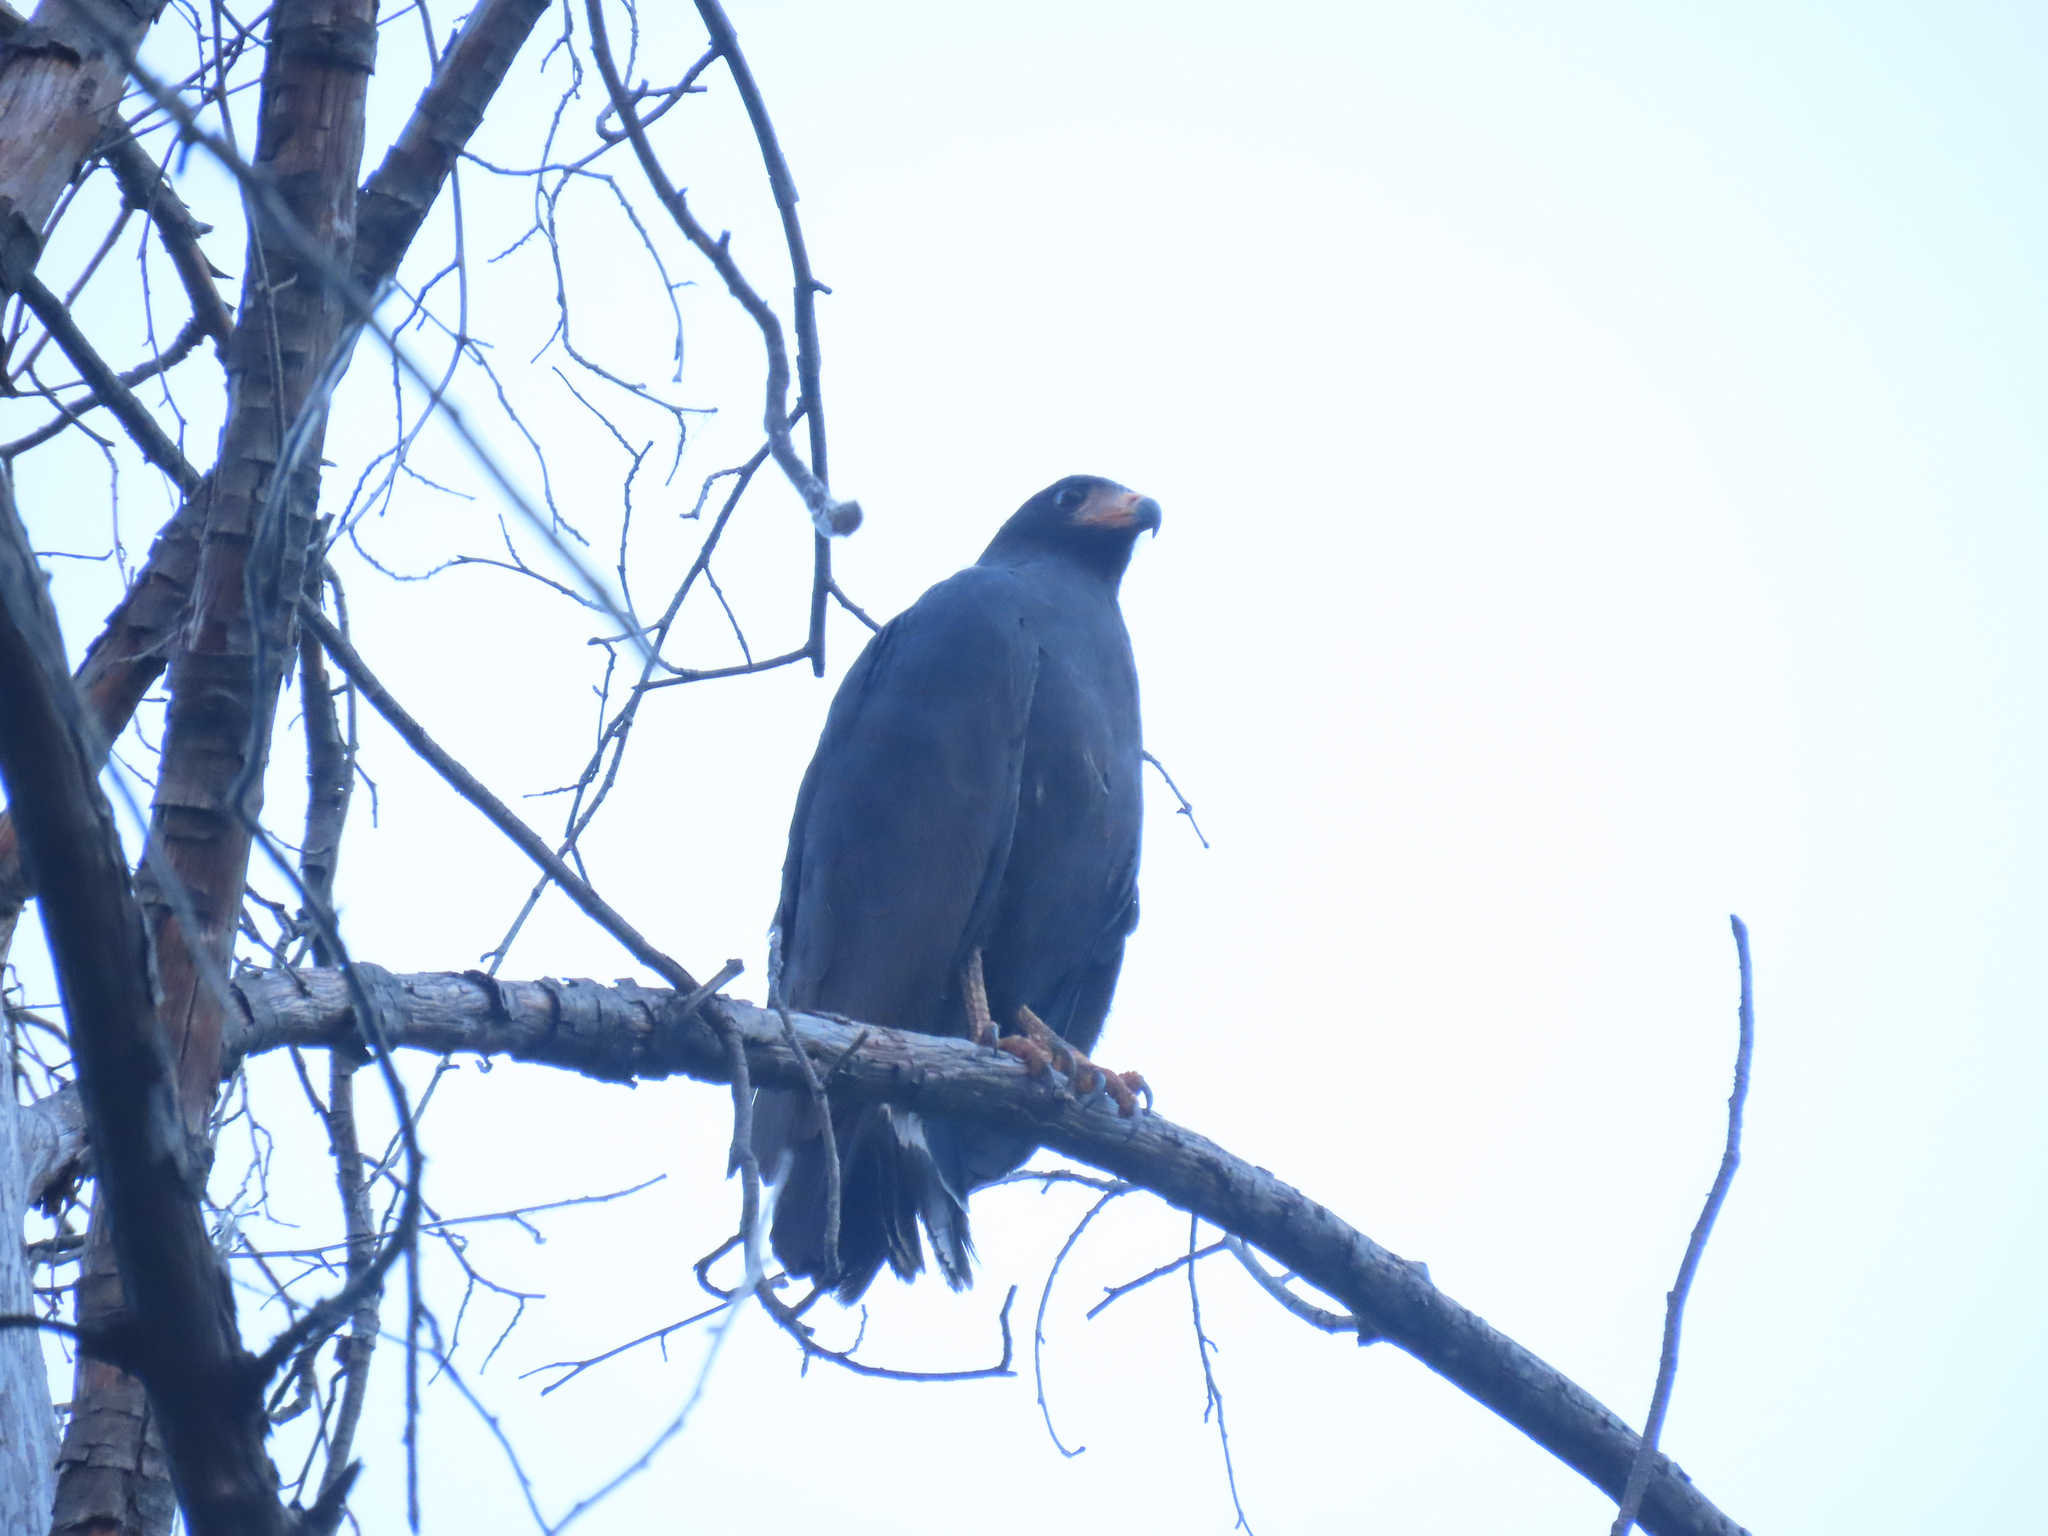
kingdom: Animalia
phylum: Chordata
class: Aves
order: Accipitriformes
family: Accipitridae
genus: Buteogallus
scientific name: Buteogallus anthracinus
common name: Common black hawk
